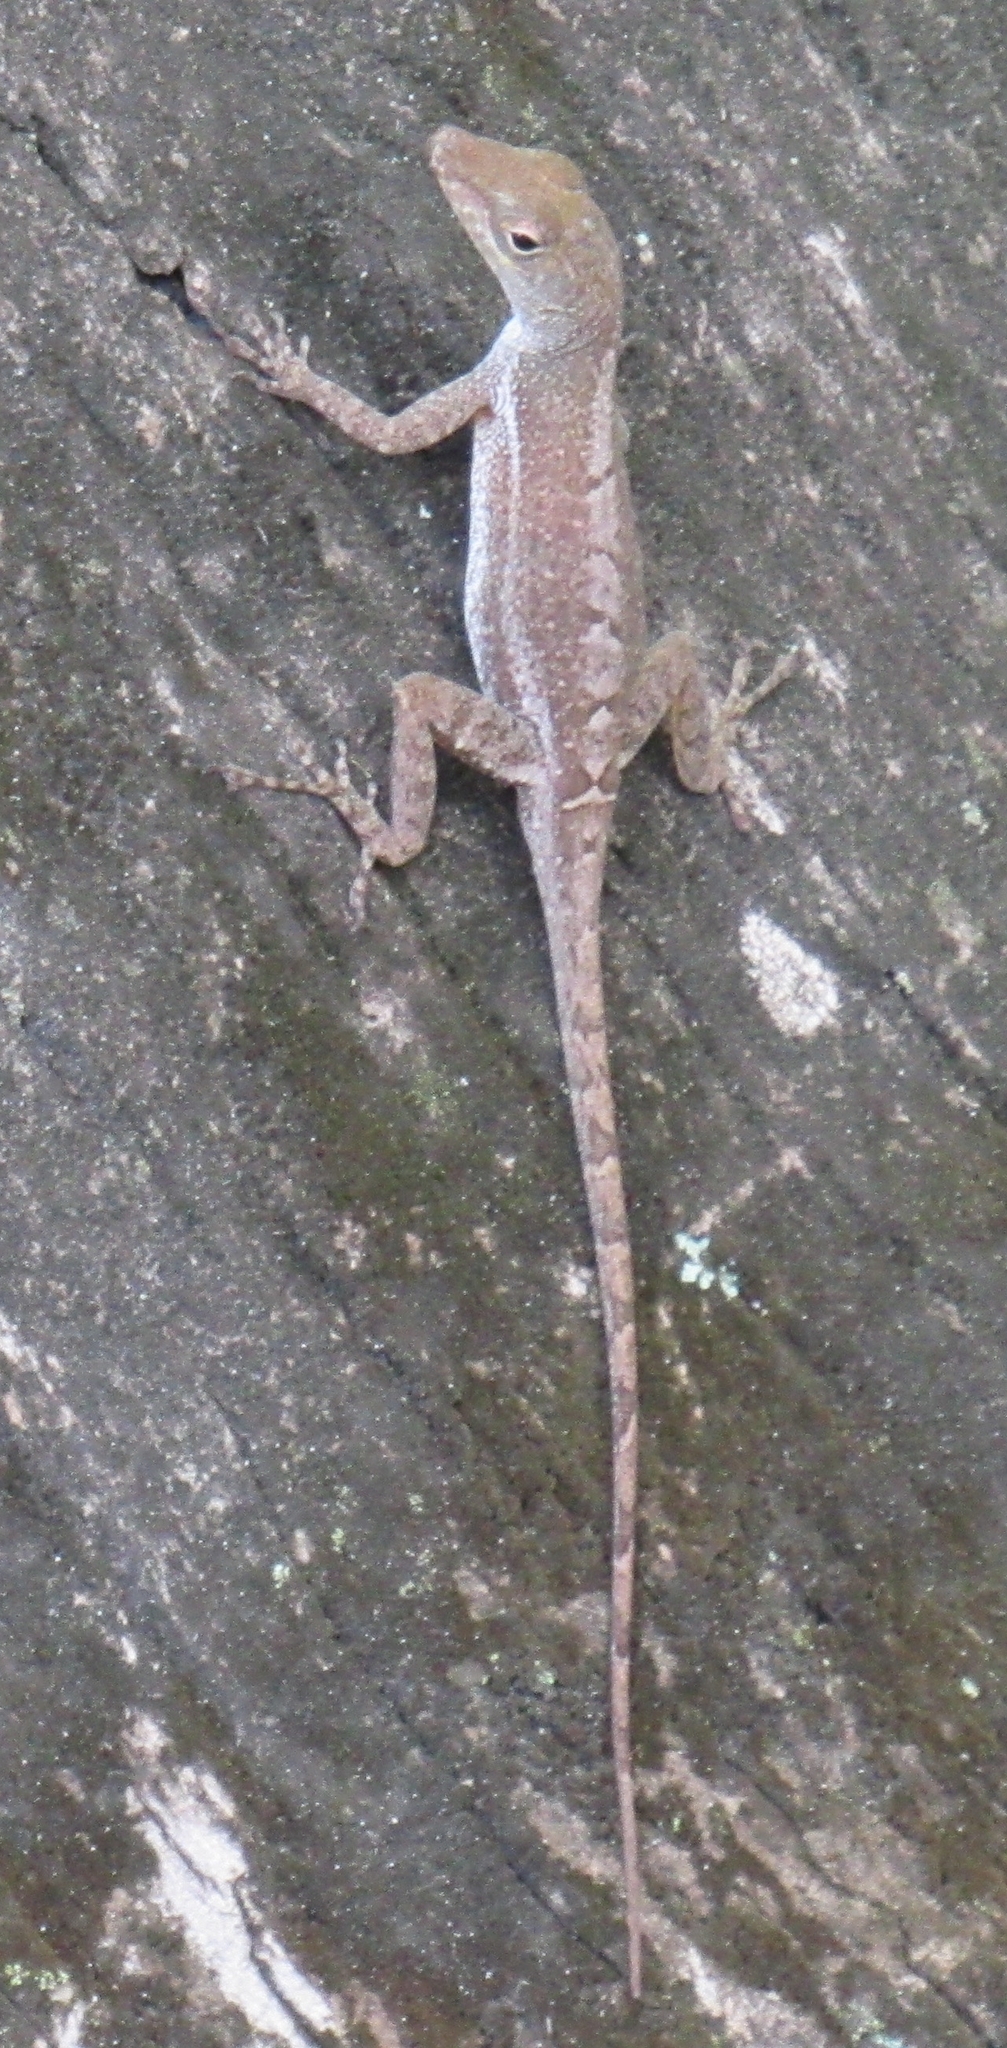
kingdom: Animalia
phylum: Chordata
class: Squamata
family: Dactyloidae
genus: Anolis
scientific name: Anolis acutus
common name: Saint croix's anole
